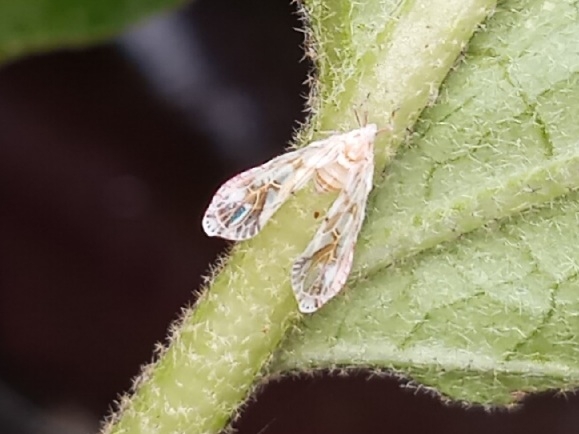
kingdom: Animalia
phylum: Arthropoda
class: Insecta
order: Hemiptera
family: Derbidae
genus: Anotia
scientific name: Anotia kirkaldyi
